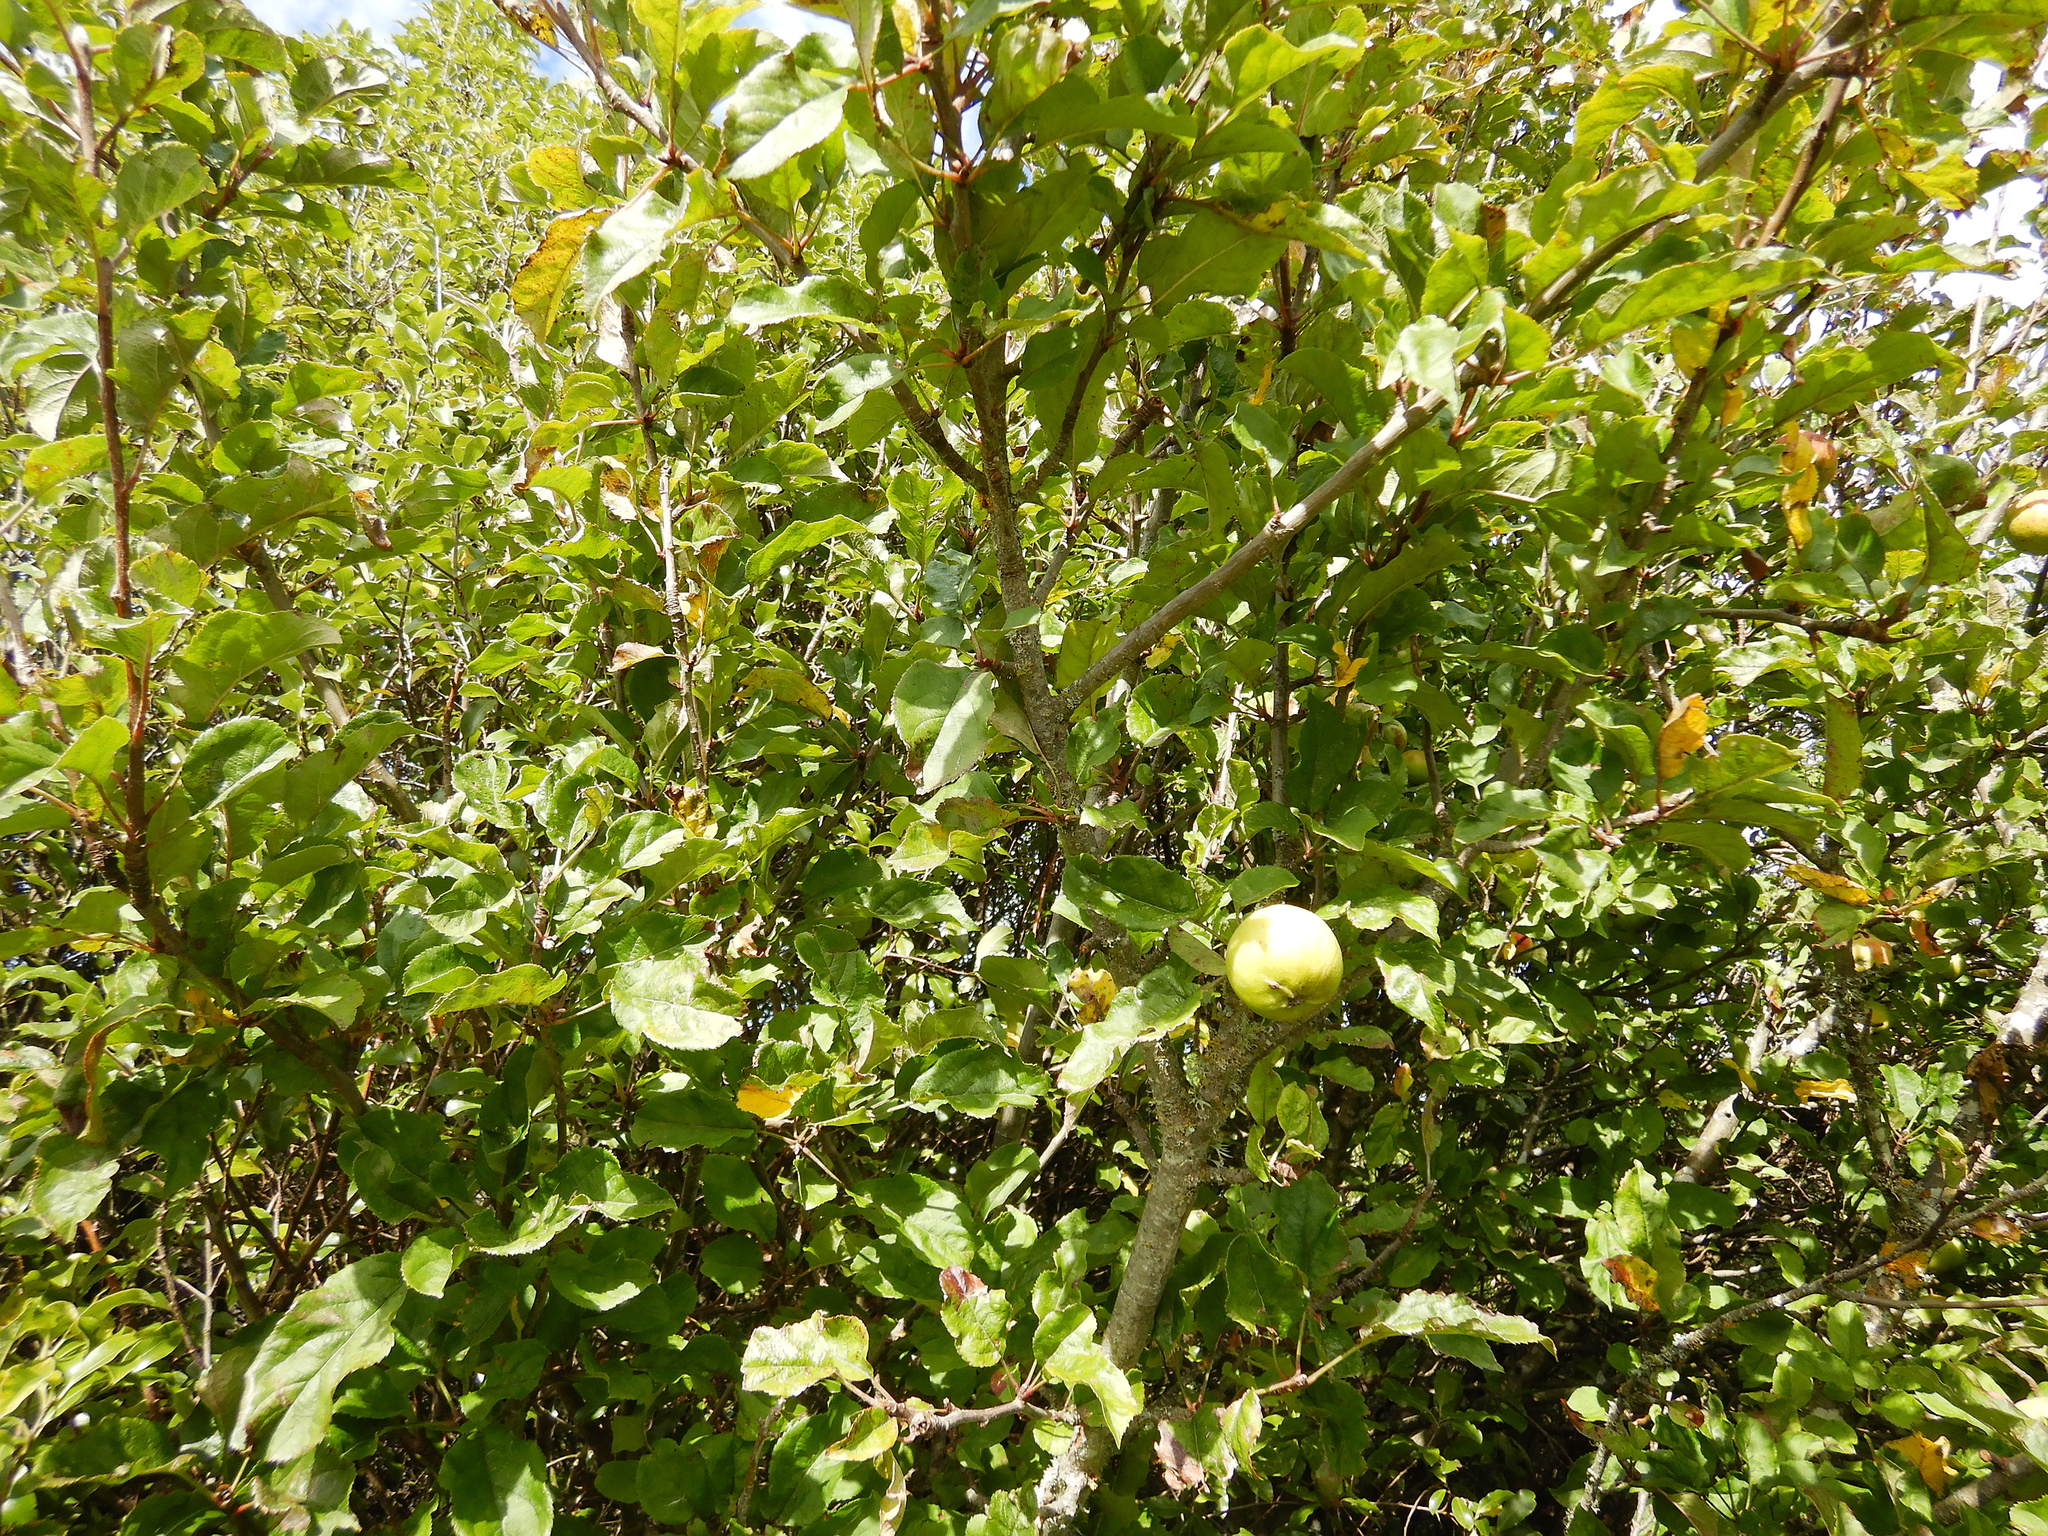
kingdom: Plantae
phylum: Tracheophyta
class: Magnoliopsida
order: Rosales
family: Rosaceae
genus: Malus
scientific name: Malus domestica
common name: Apple
